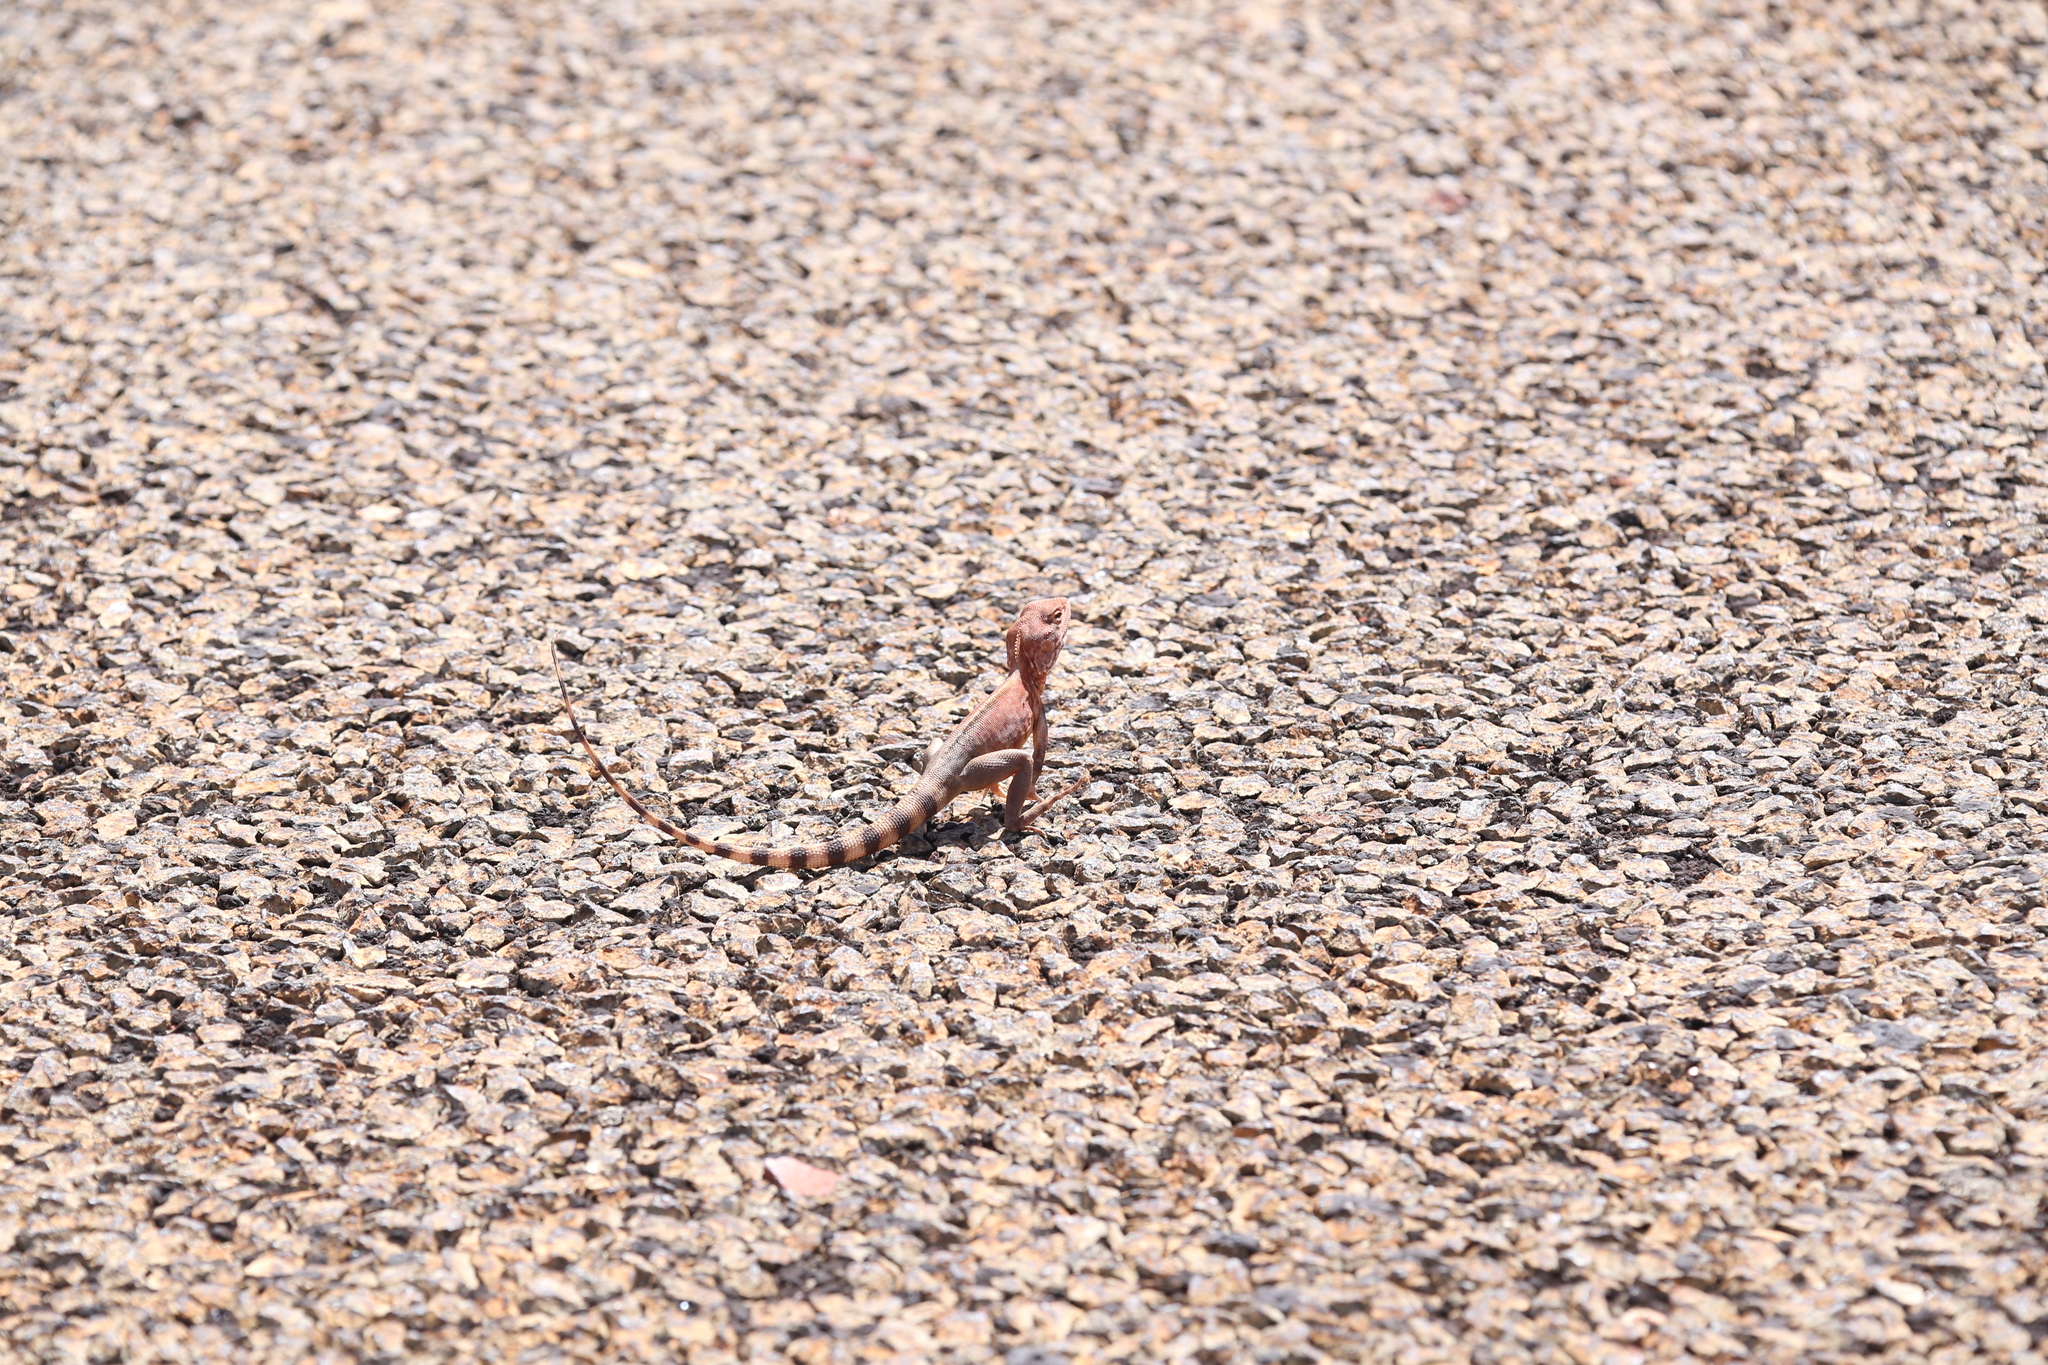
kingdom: Animalia
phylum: Chordata
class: Squamata
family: Agamidae
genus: Ctenophorus
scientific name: Ctenophorus caudicinctus
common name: Ring-tailed dragon
